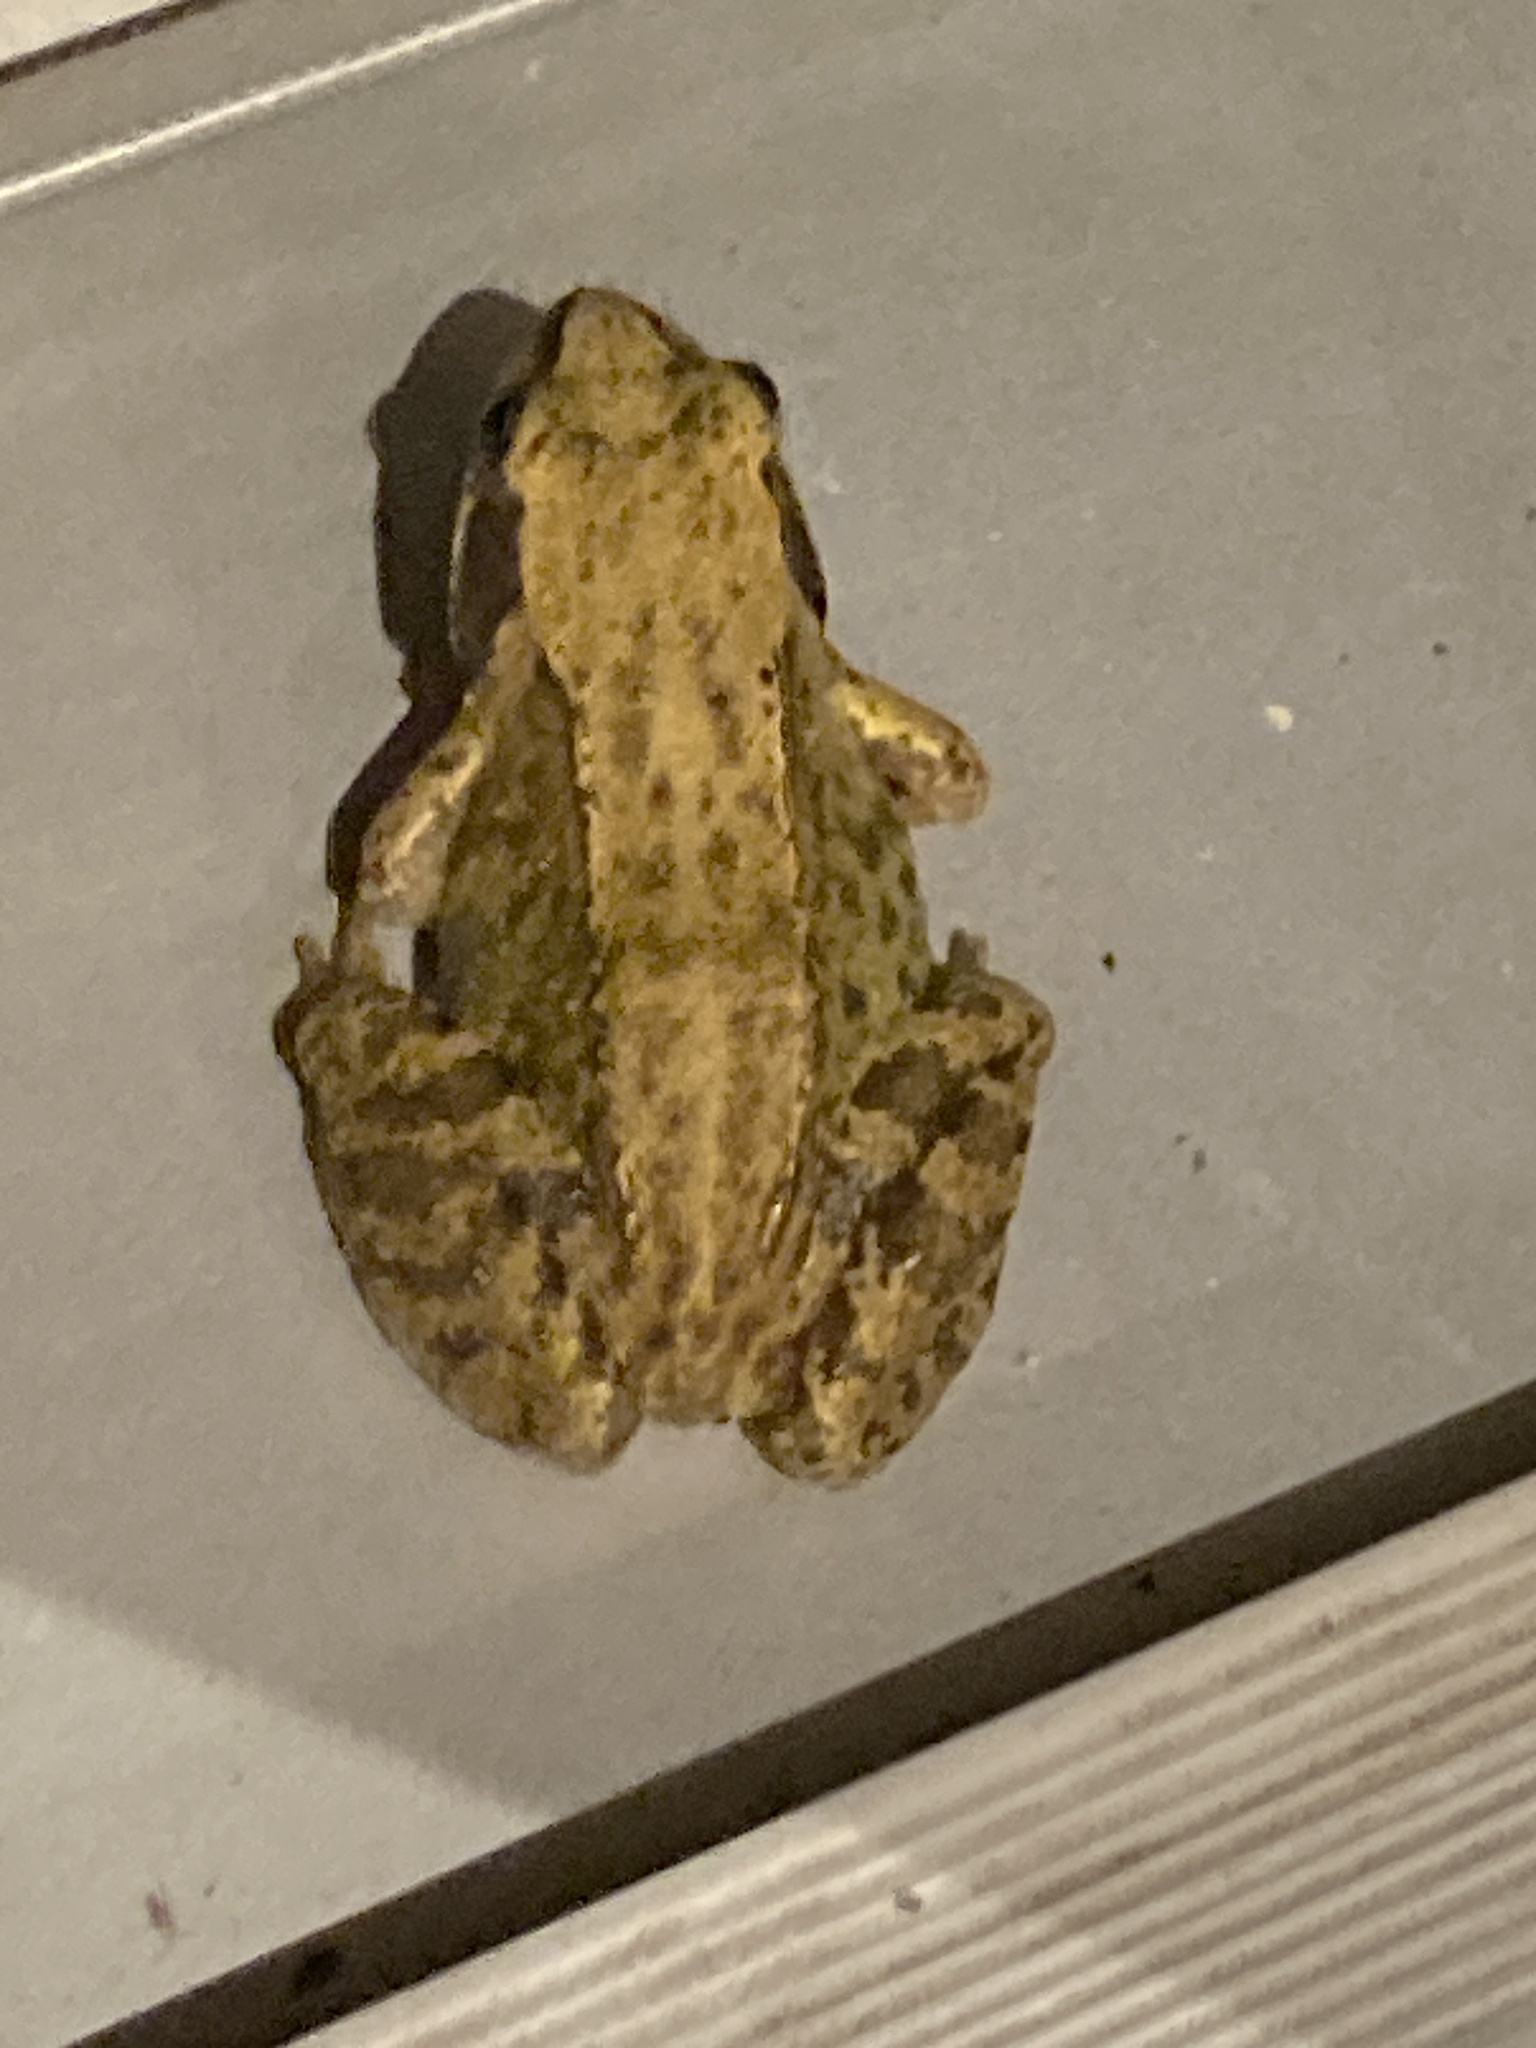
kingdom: Animalia
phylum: Chordata
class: Amphibia
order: Anura
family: Ranidae
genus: Rana
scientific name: Rana temporaria
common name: Common frog
